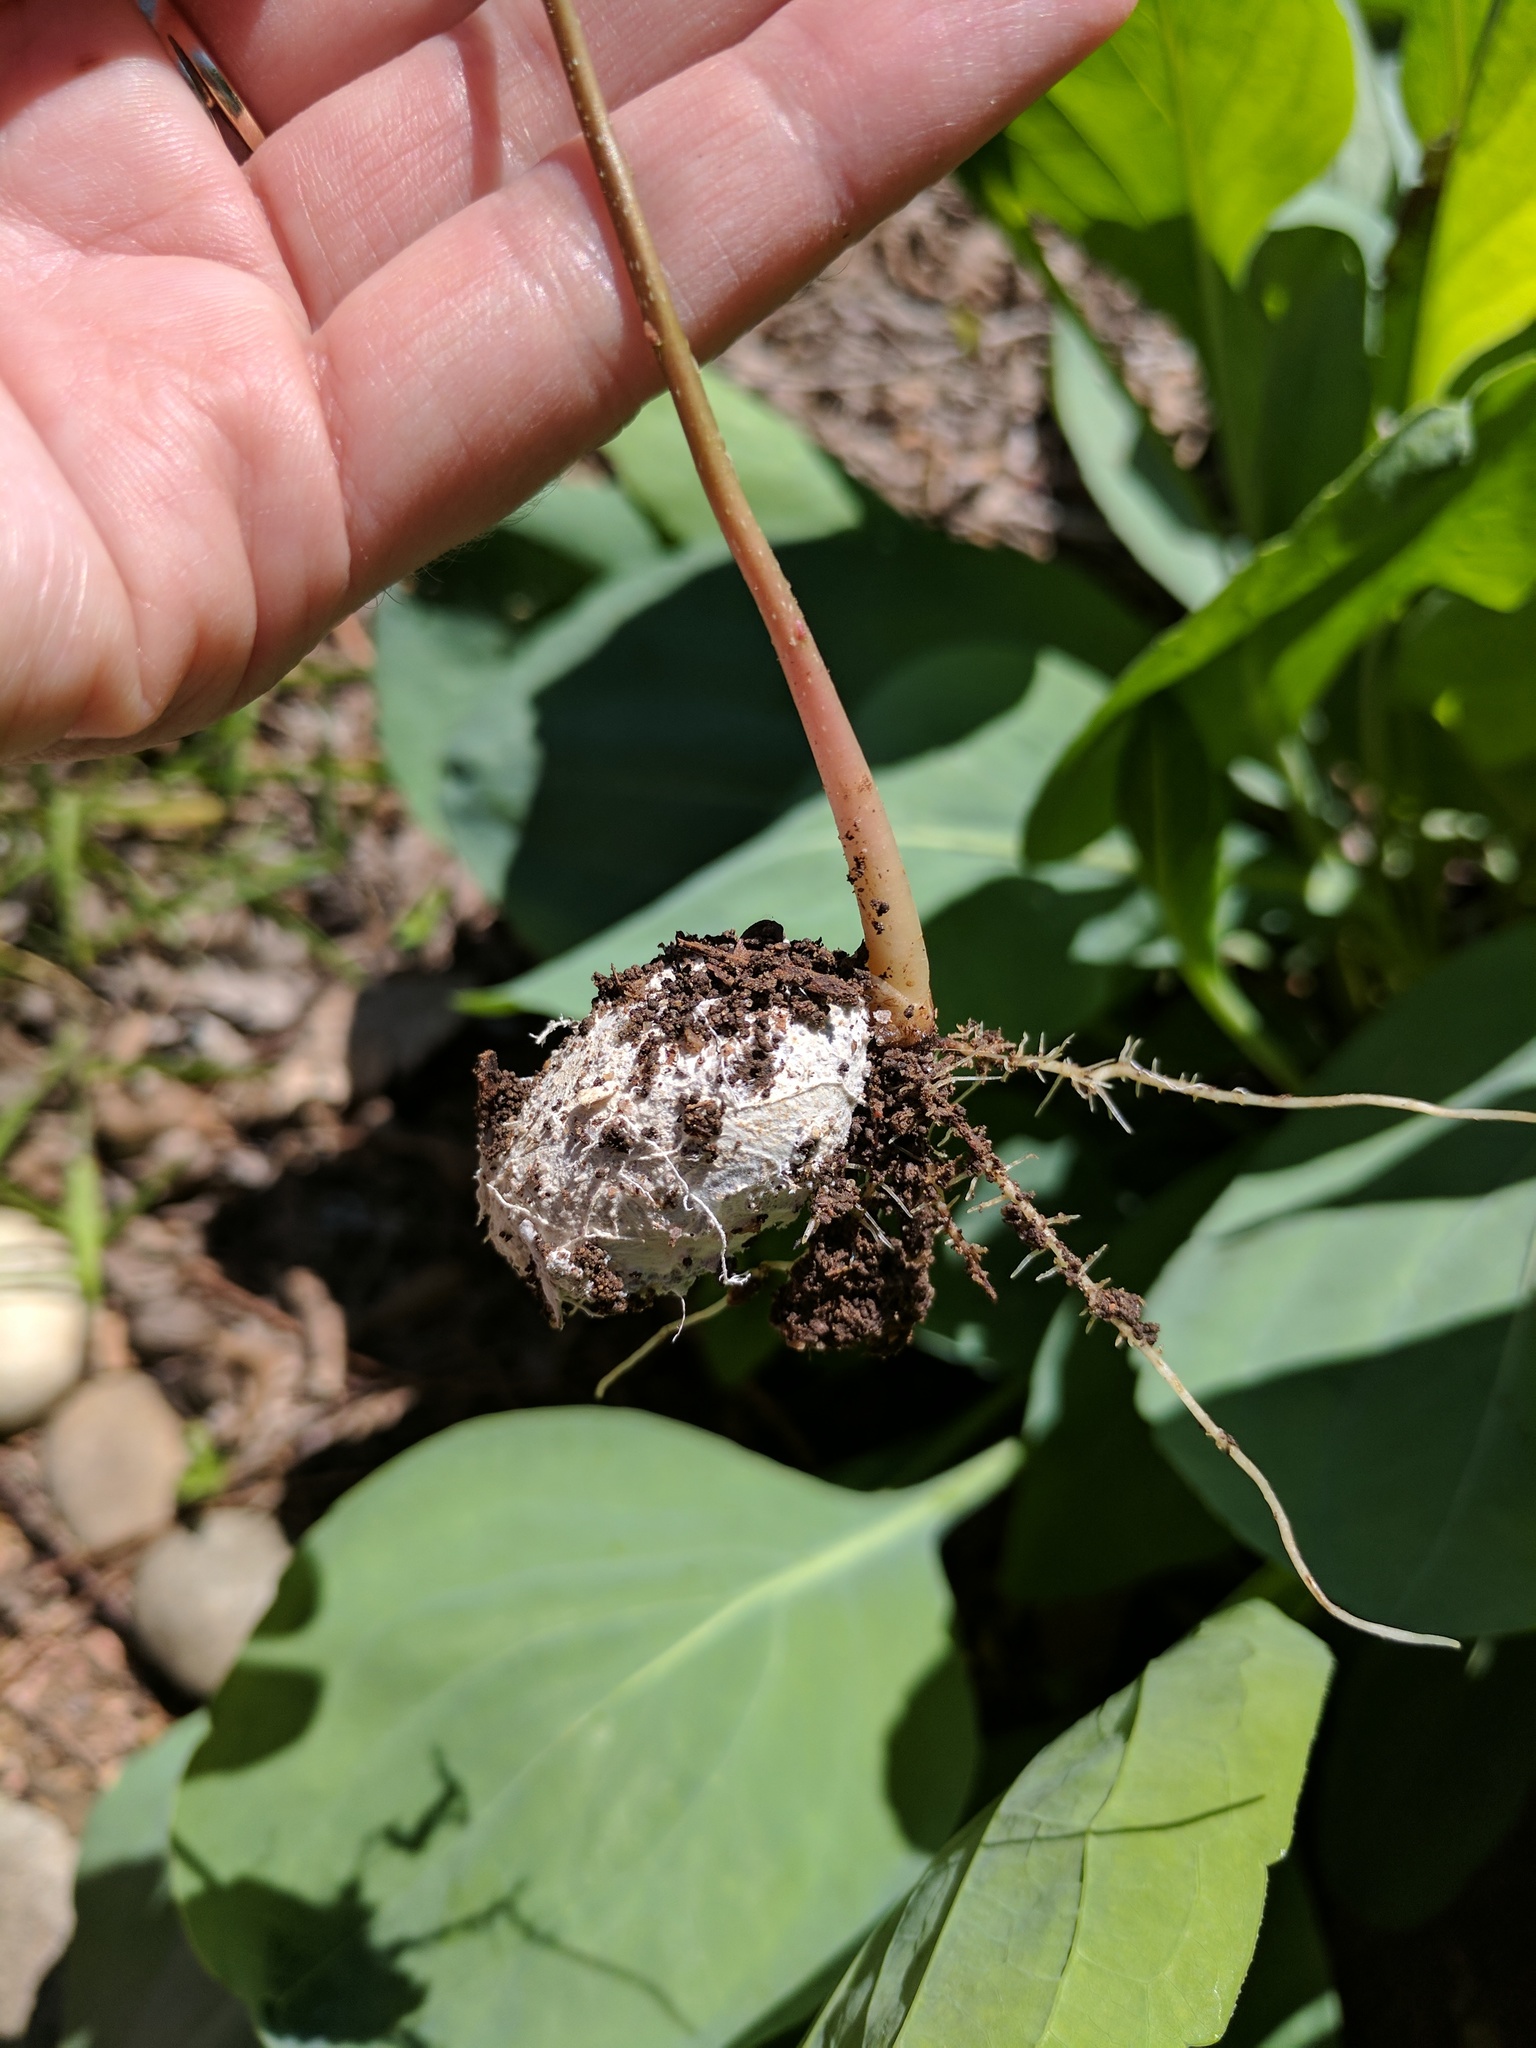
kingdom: Plantae
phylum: Tracheophyta
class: Magnoliopsida
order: Fagales
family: Juglandaceae
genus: Carya
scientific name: Carya illinoinensis
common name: Pecan
